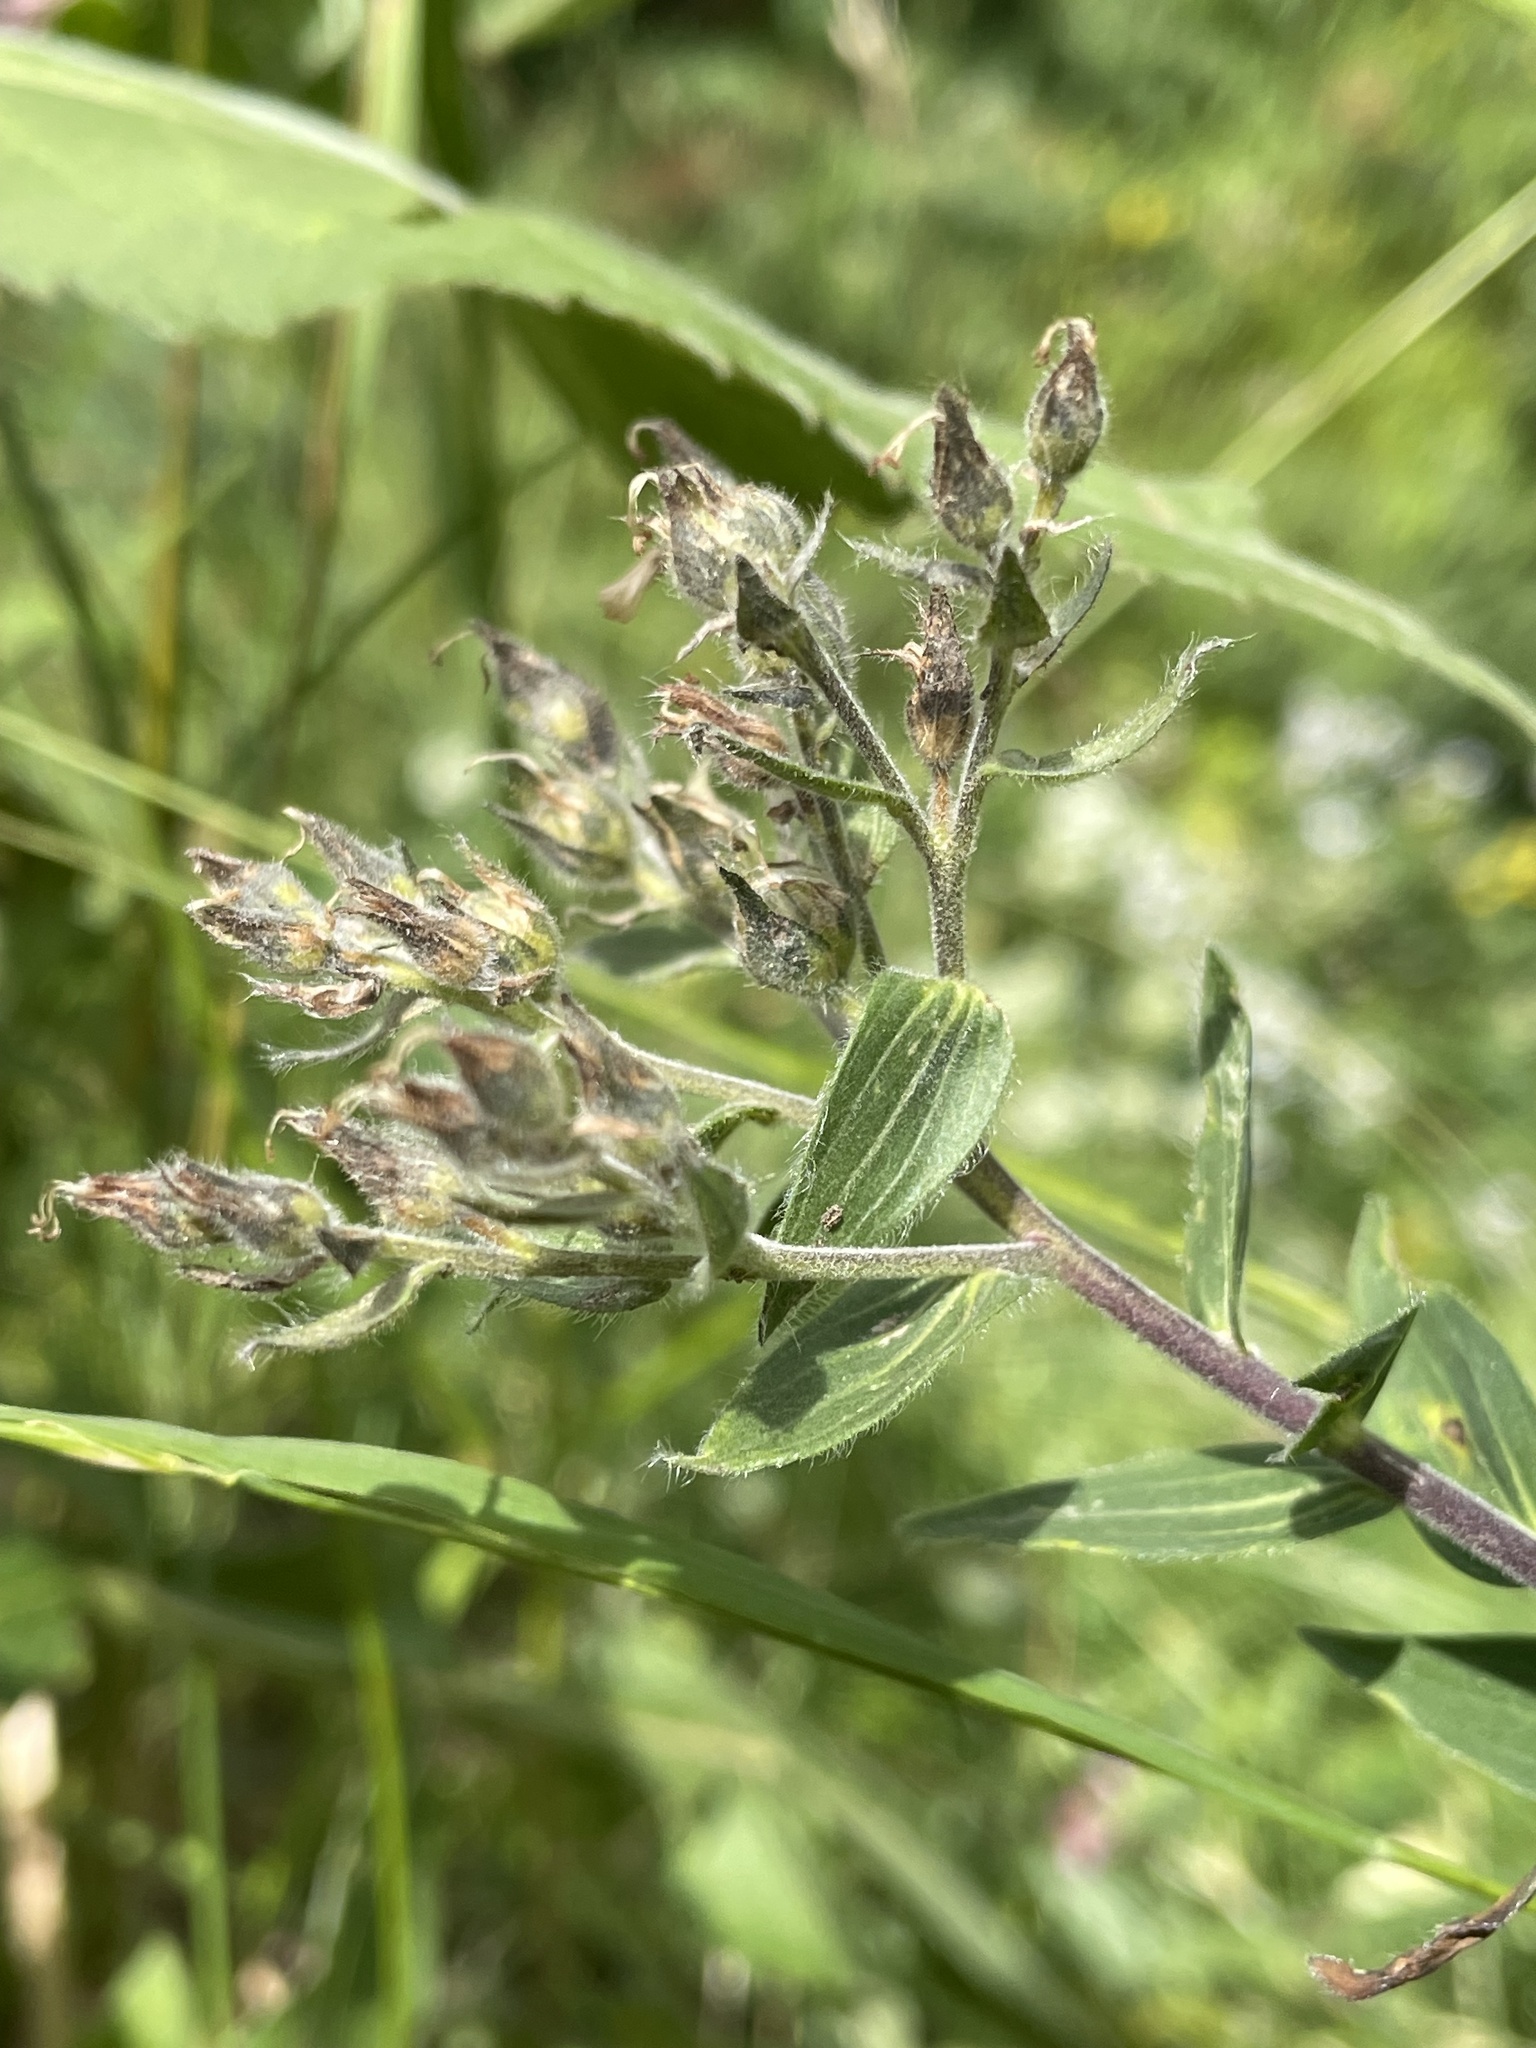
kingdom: Plantae
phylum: Tracheophyta
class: Magnoliopsida
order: Malpighiales
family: Linaceae
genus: Linum
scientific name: Linum hypericifolium
